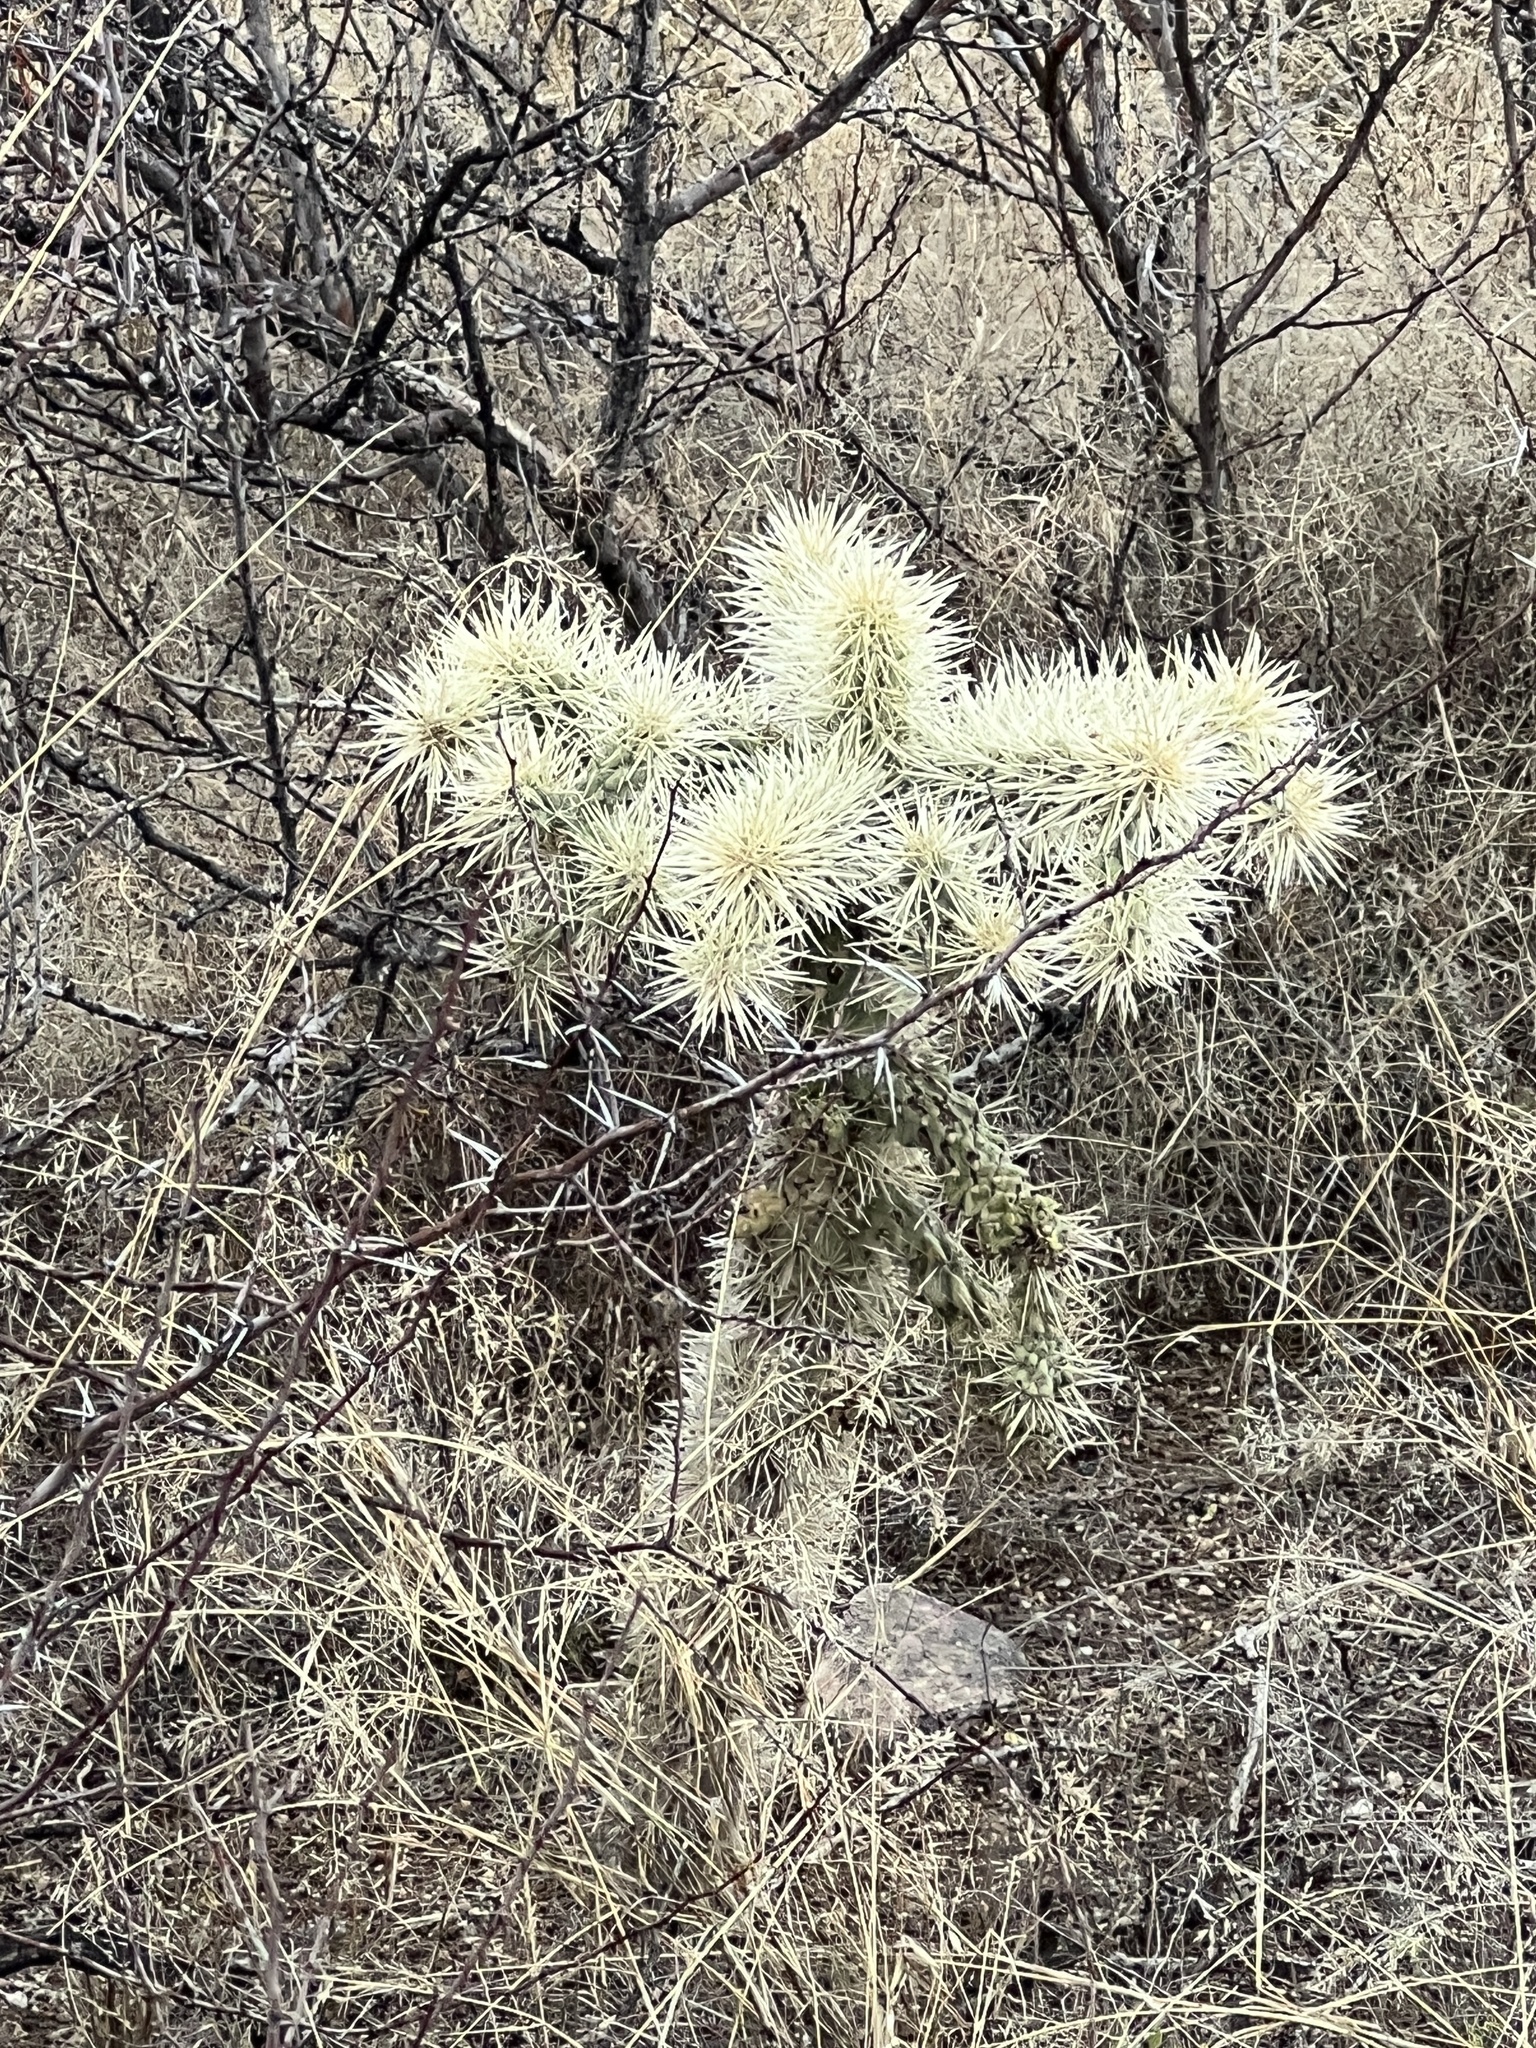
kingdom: Plantae
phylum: Tracheophyta
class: Magnoliopsida
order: Caryophyllales
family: Cactaceae
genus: Cylindropuntia
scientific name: Cylindropuntia fulgida
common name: Jumping cholla
